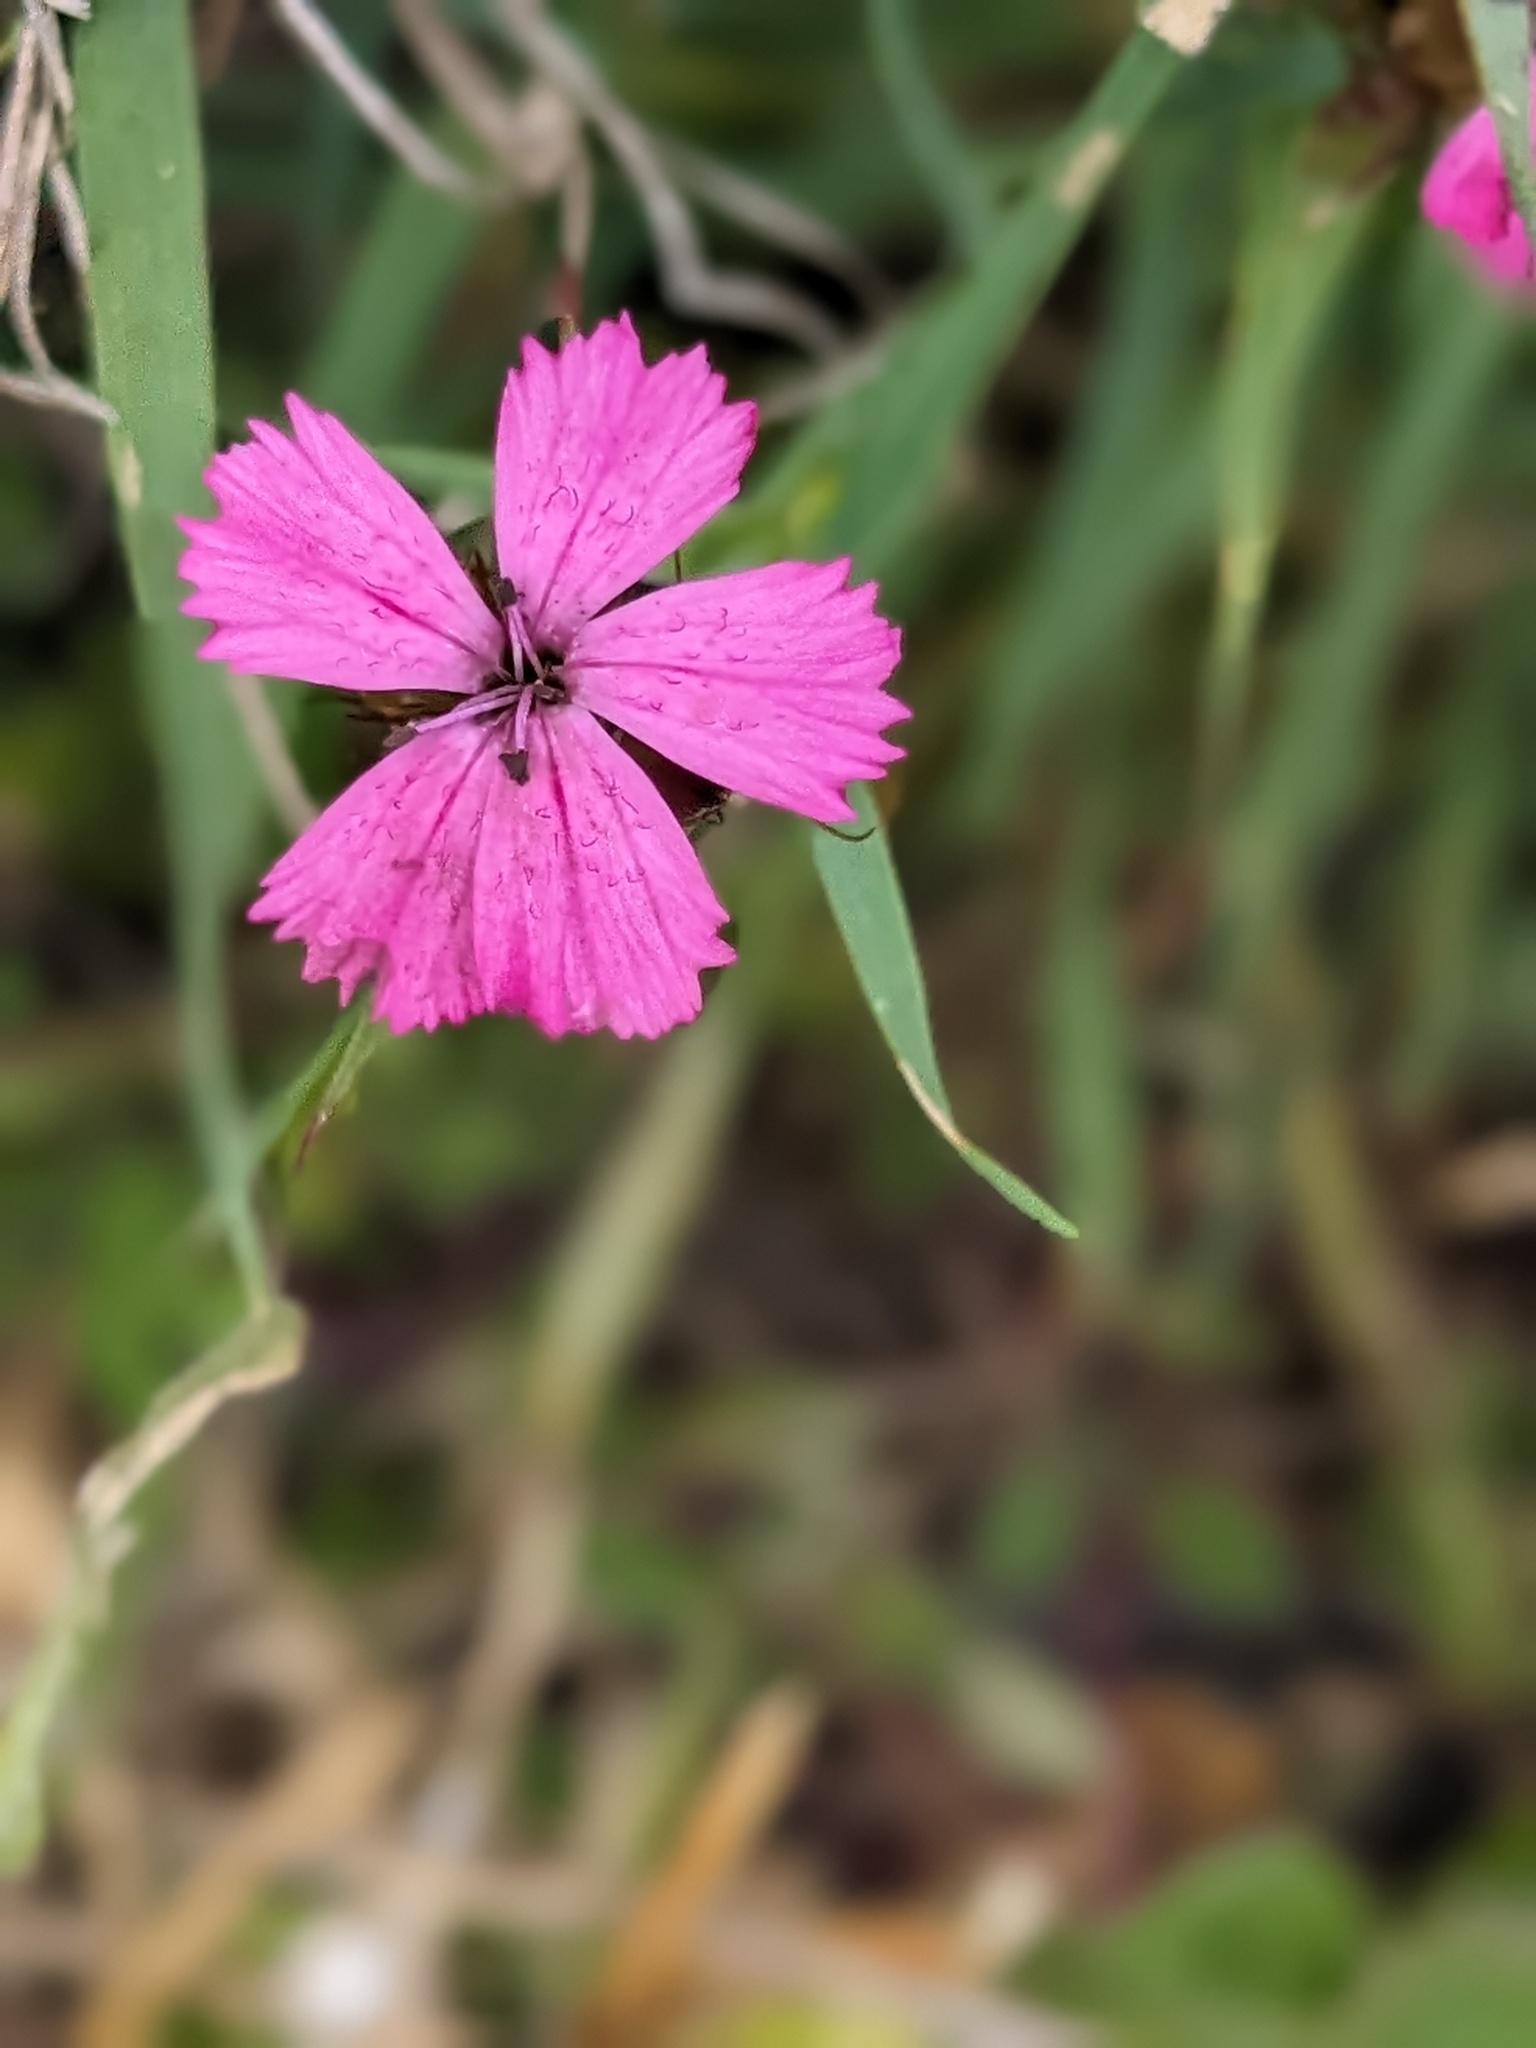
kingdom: Plantae
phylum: Tracheophyta
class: Magnoliopsida
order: Caryophyllales
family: Caryophyllaceae
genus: Dianthus
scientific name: Dianthus carthusianorum
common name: Carthusian pink
